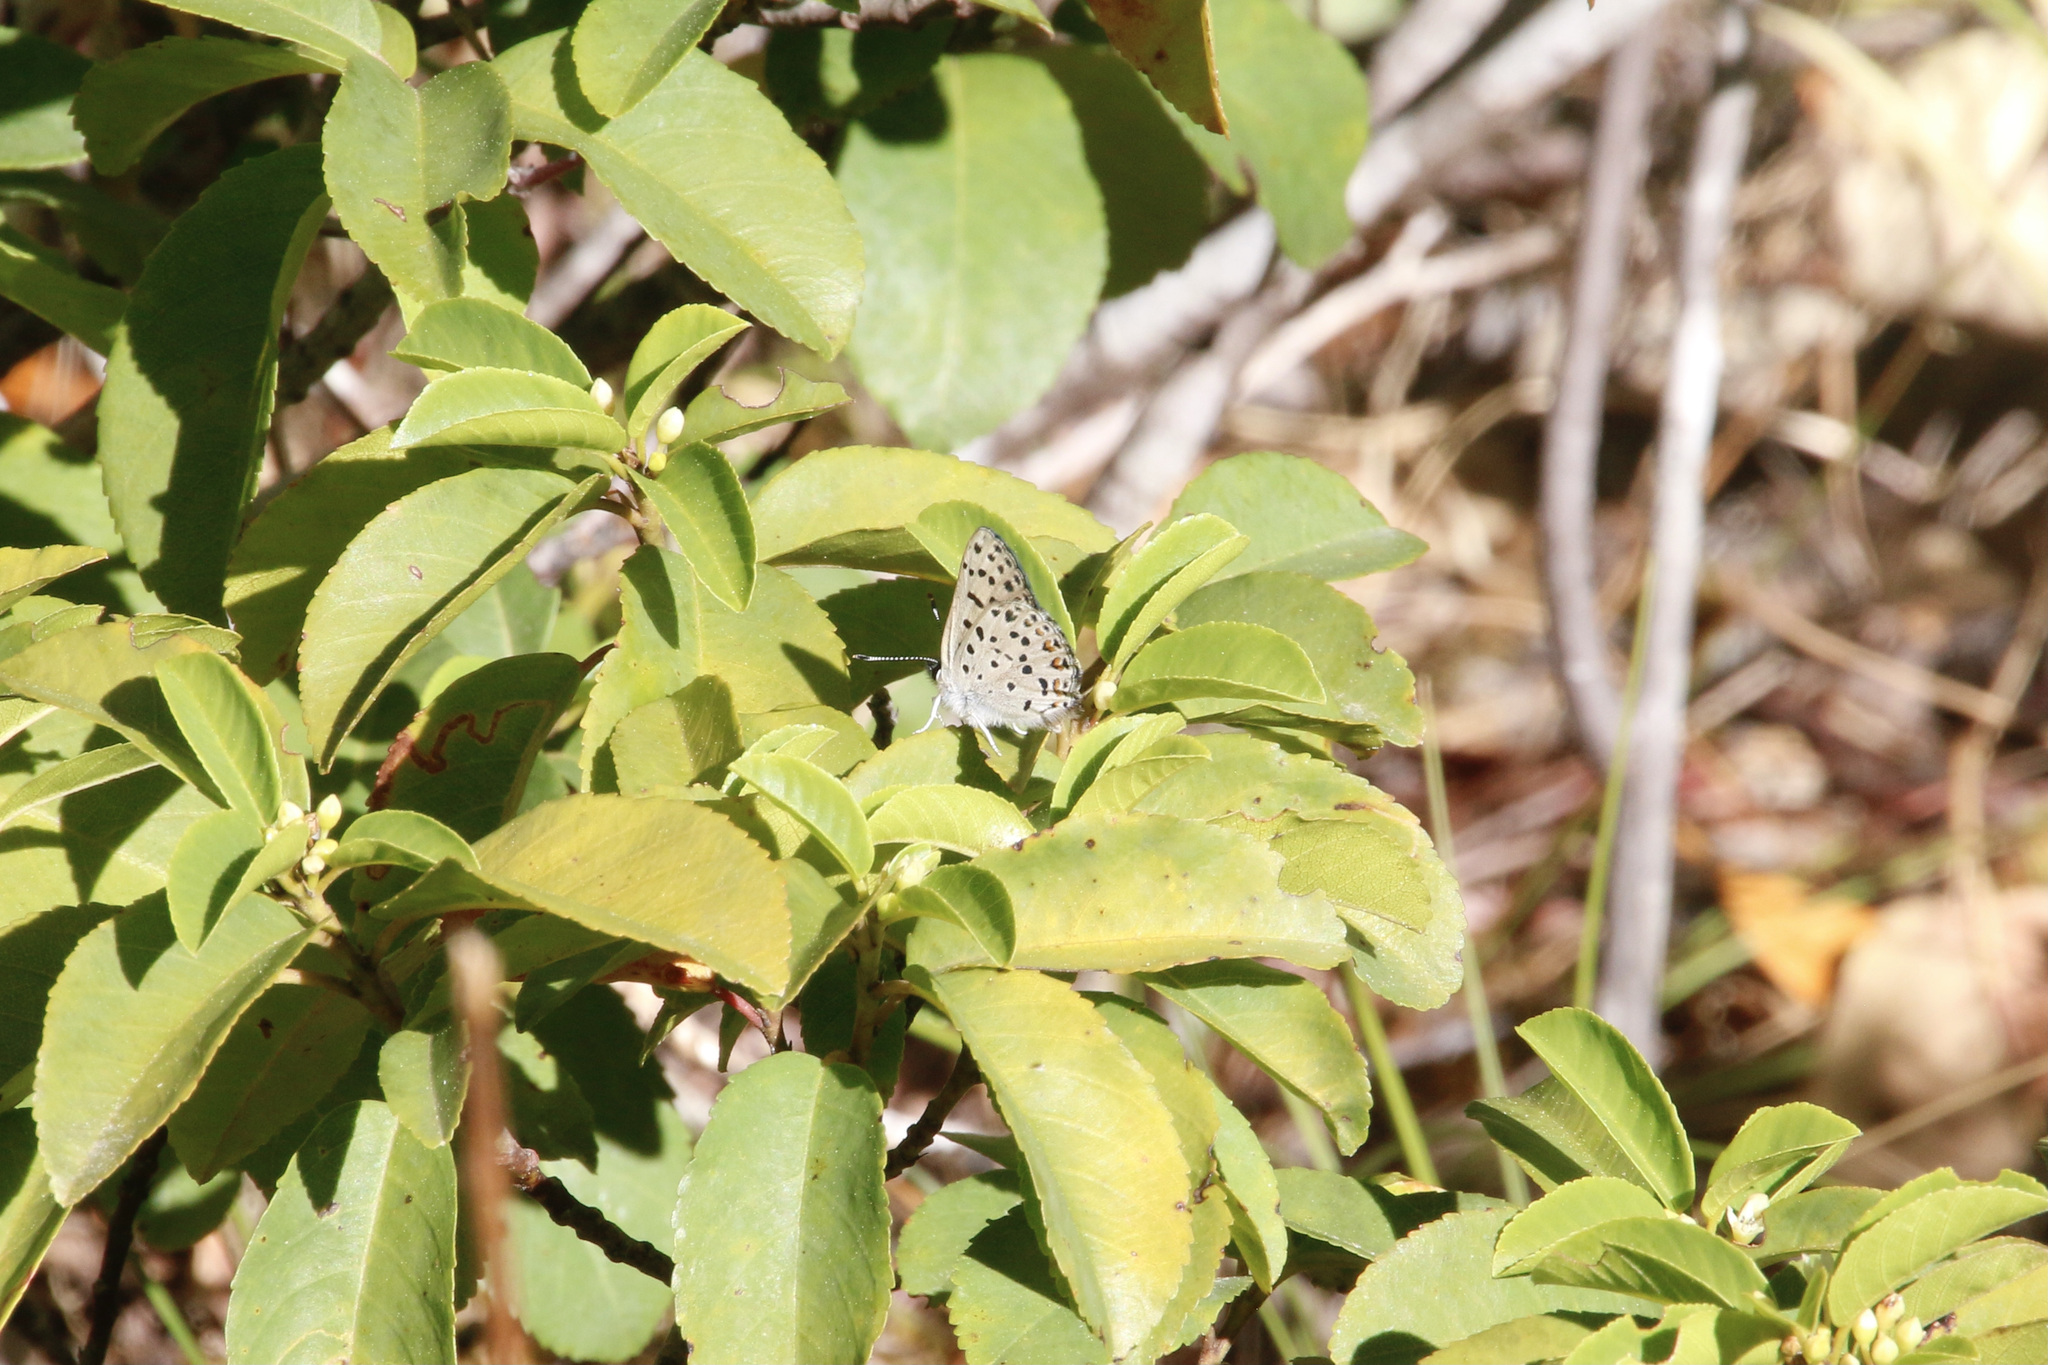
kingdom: Animalia
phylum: Arthropoda
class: Insecta
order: Lepidoptera
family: Lycaenidae
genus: Tharsalea
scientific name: Tharsalea gorgon
